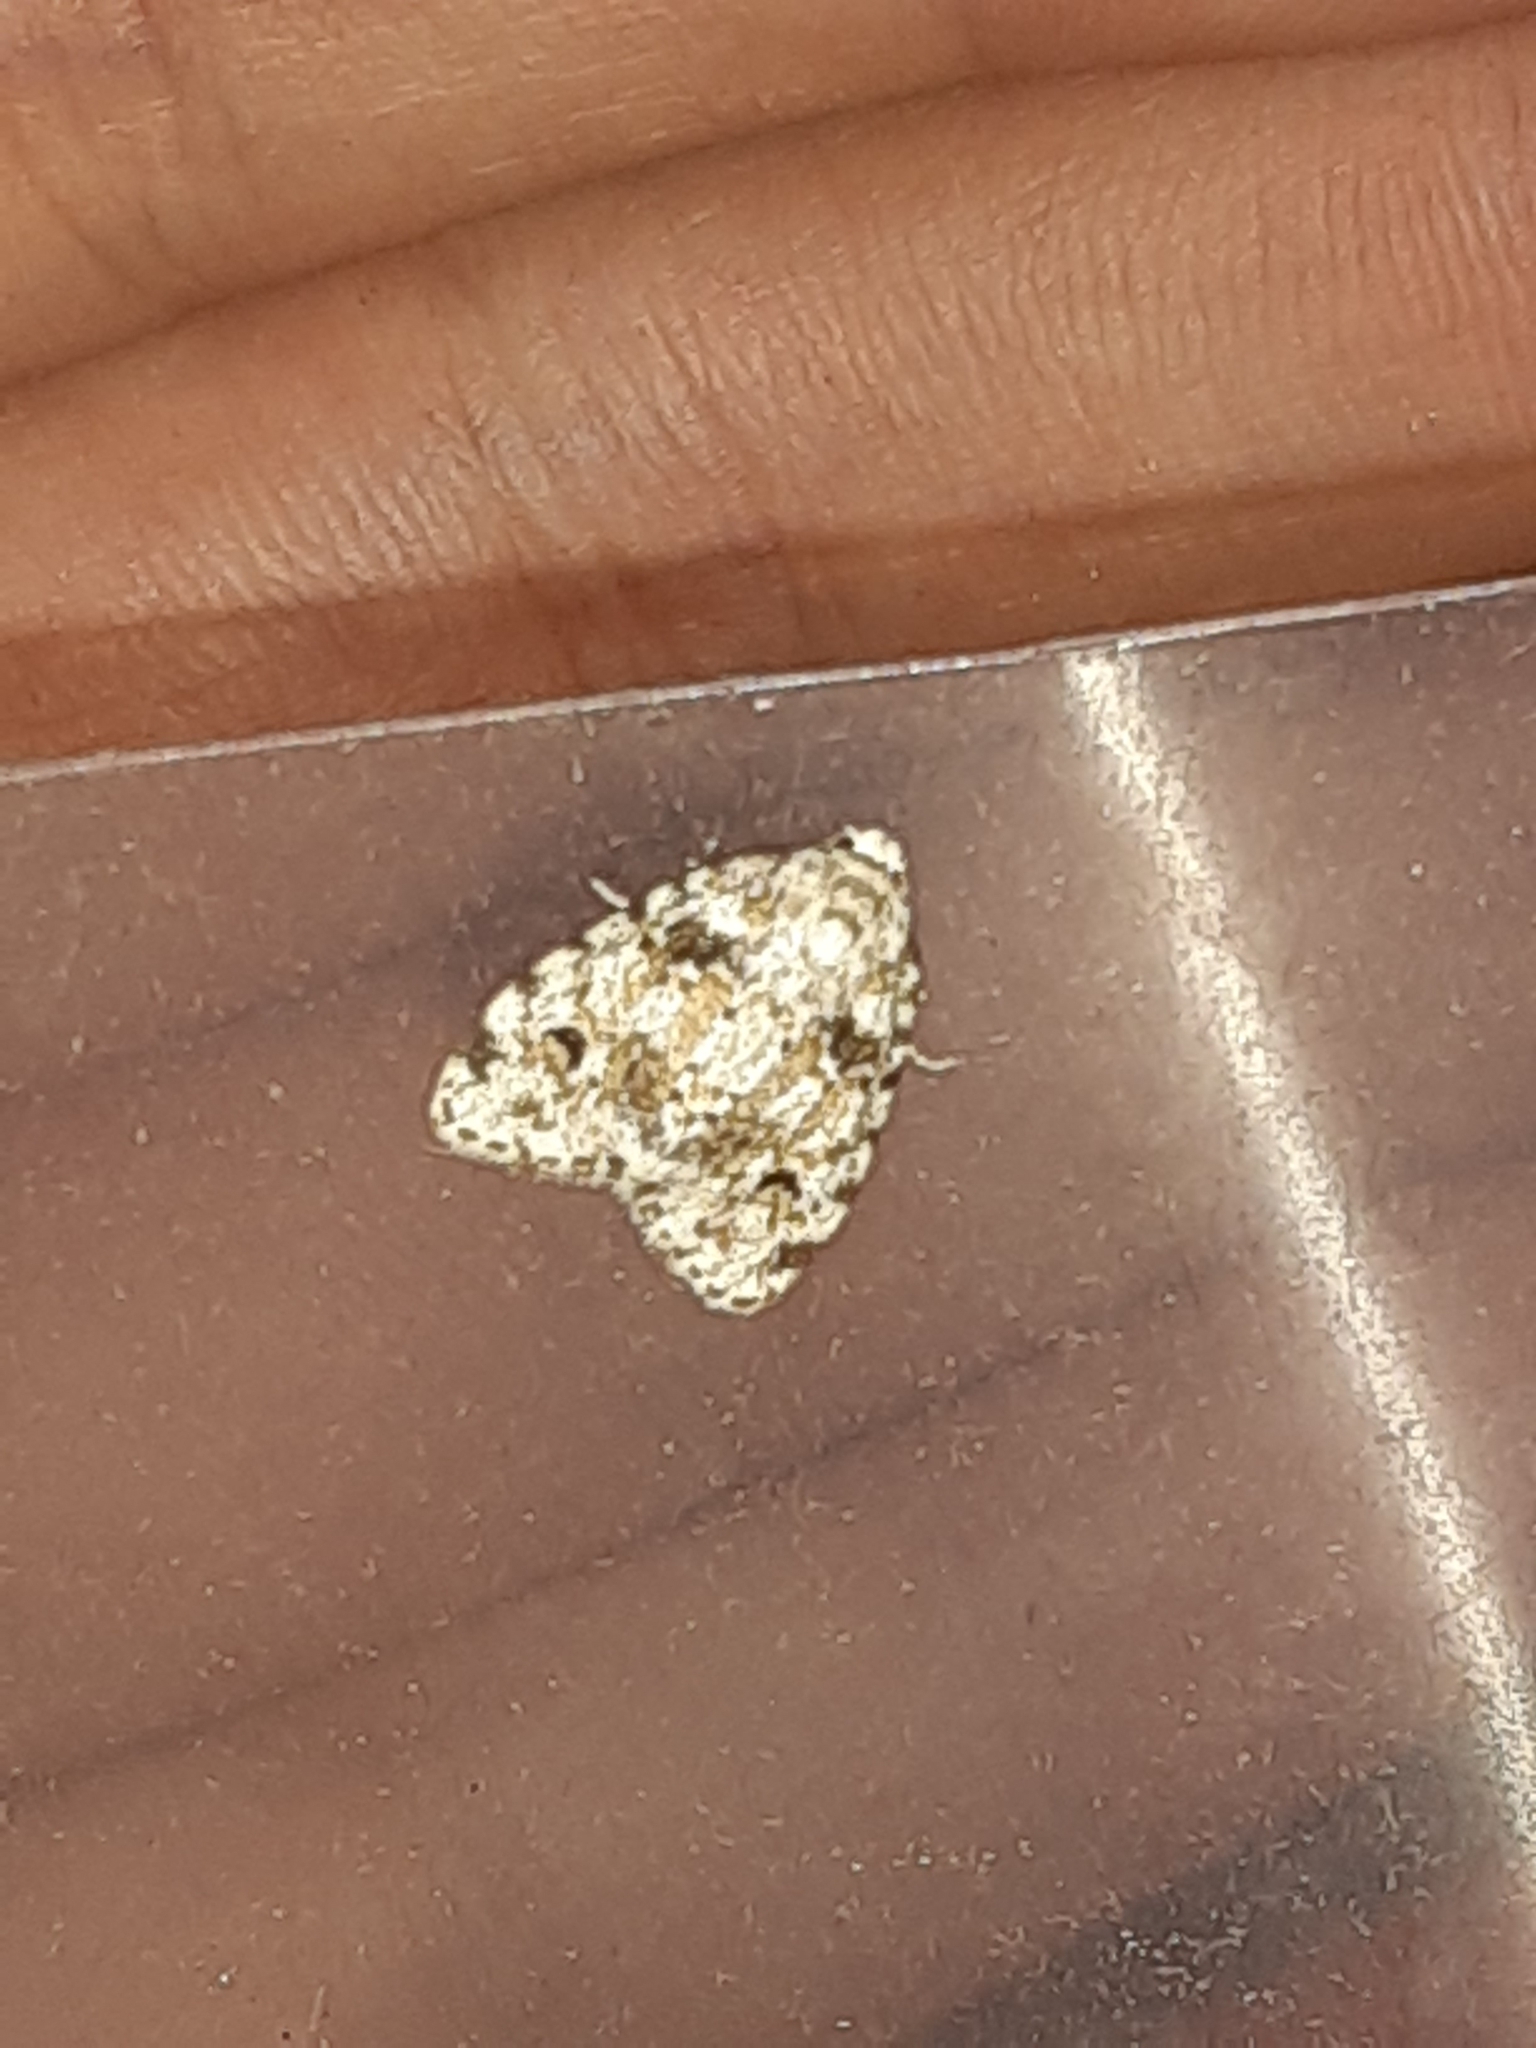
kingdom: Animalia
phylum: Arthropoda
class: Insecta
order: Lepidoptera
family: Erebidae
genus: Clemensia
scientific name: Clemensia ochreata
